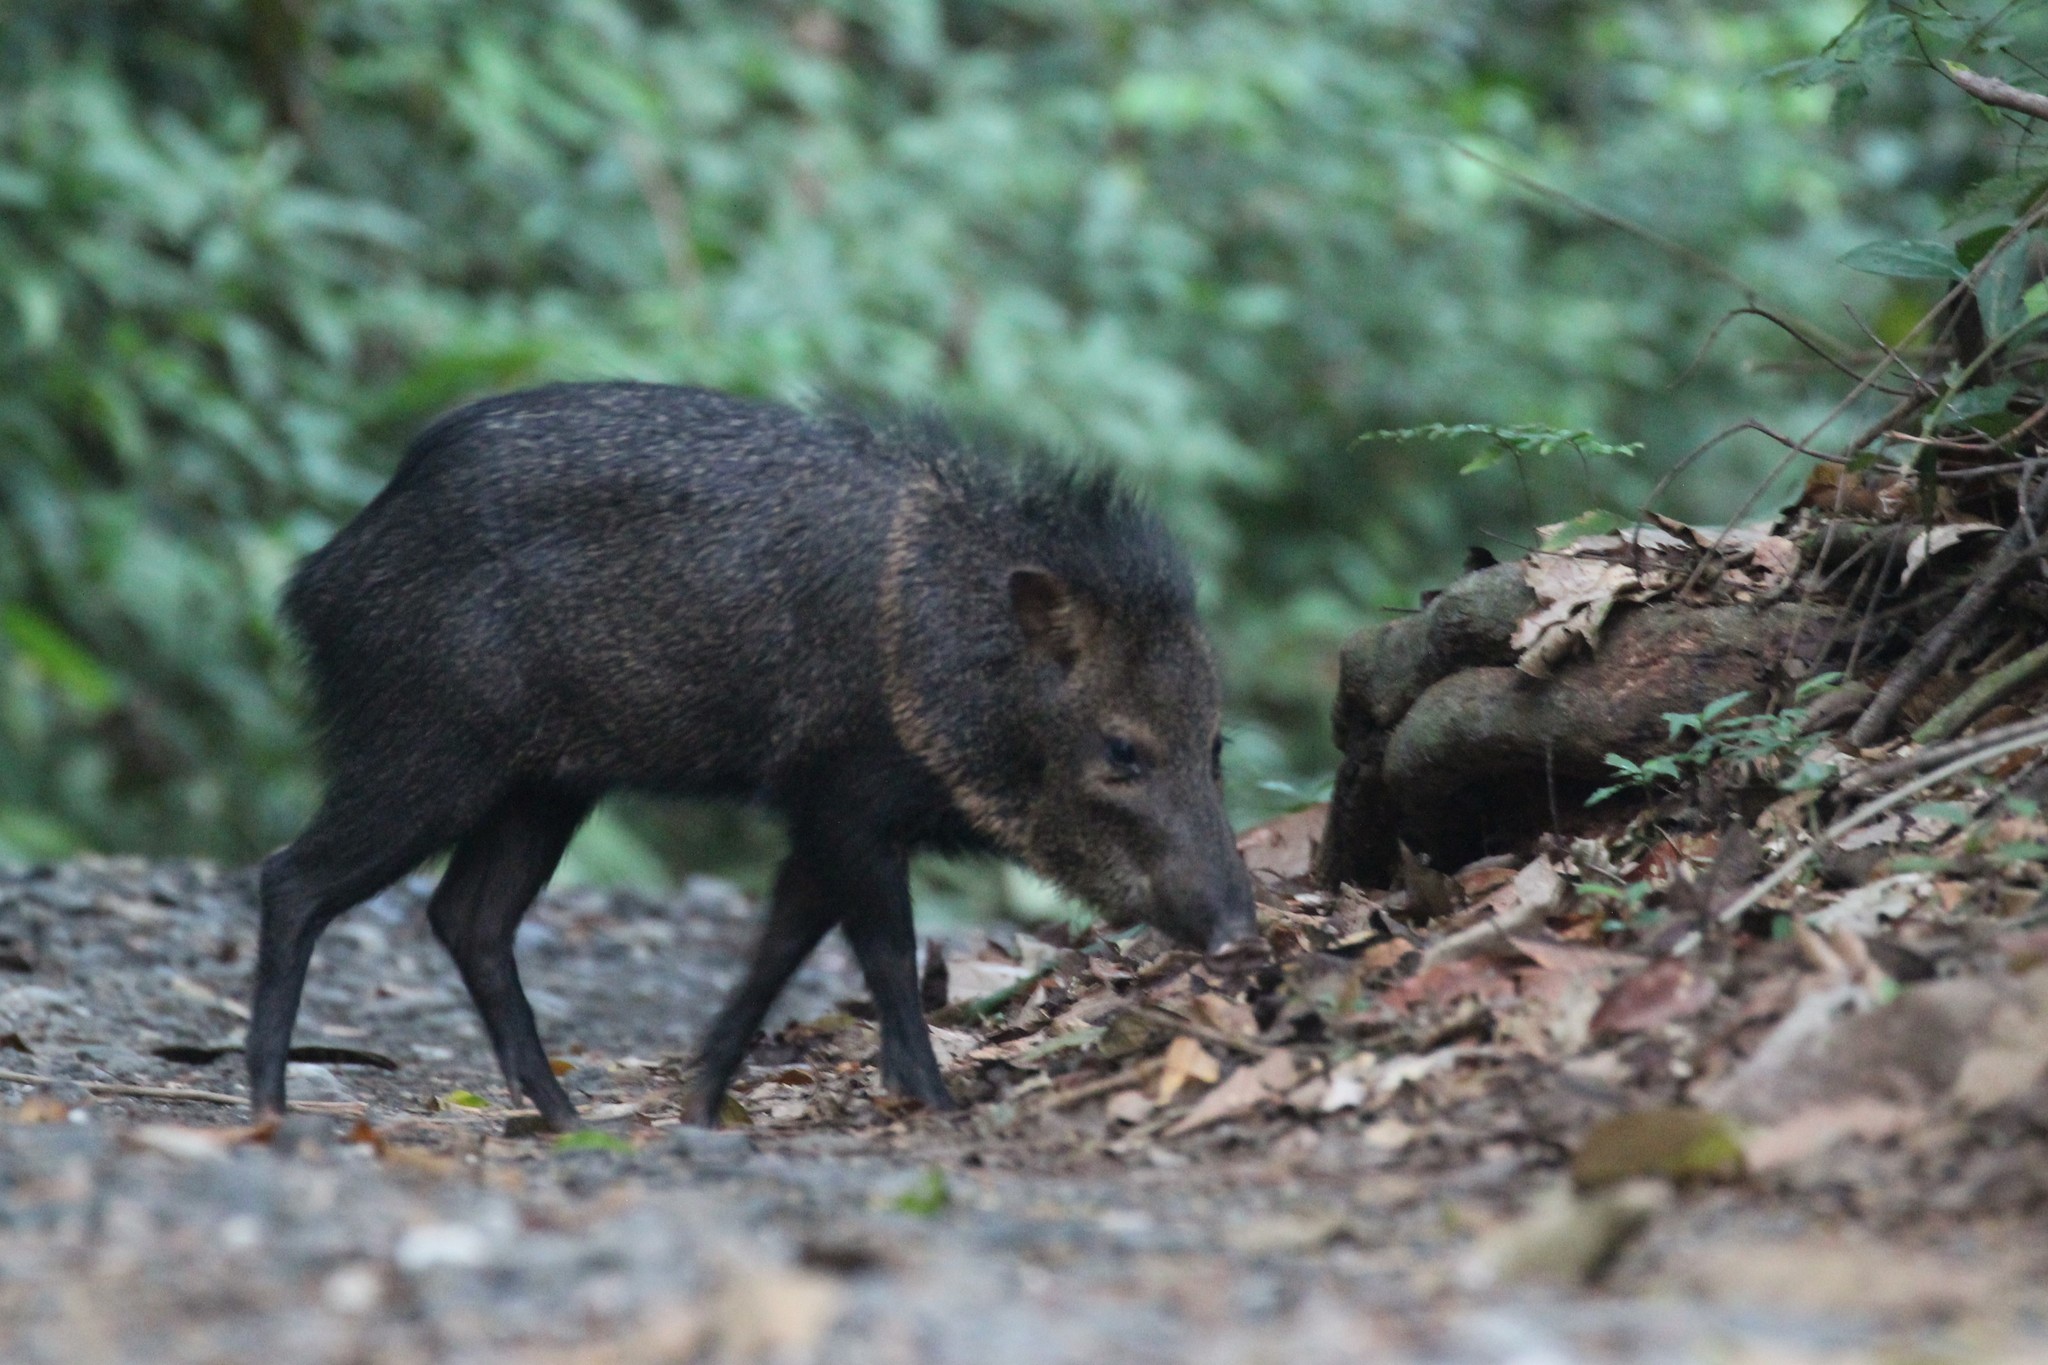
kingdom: Animalia
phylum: Chordata
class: Mammalia
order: Artiodactyla
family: Tayassuidae
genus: Pecari
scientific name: Pecari tajacu
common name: Collared peccary
